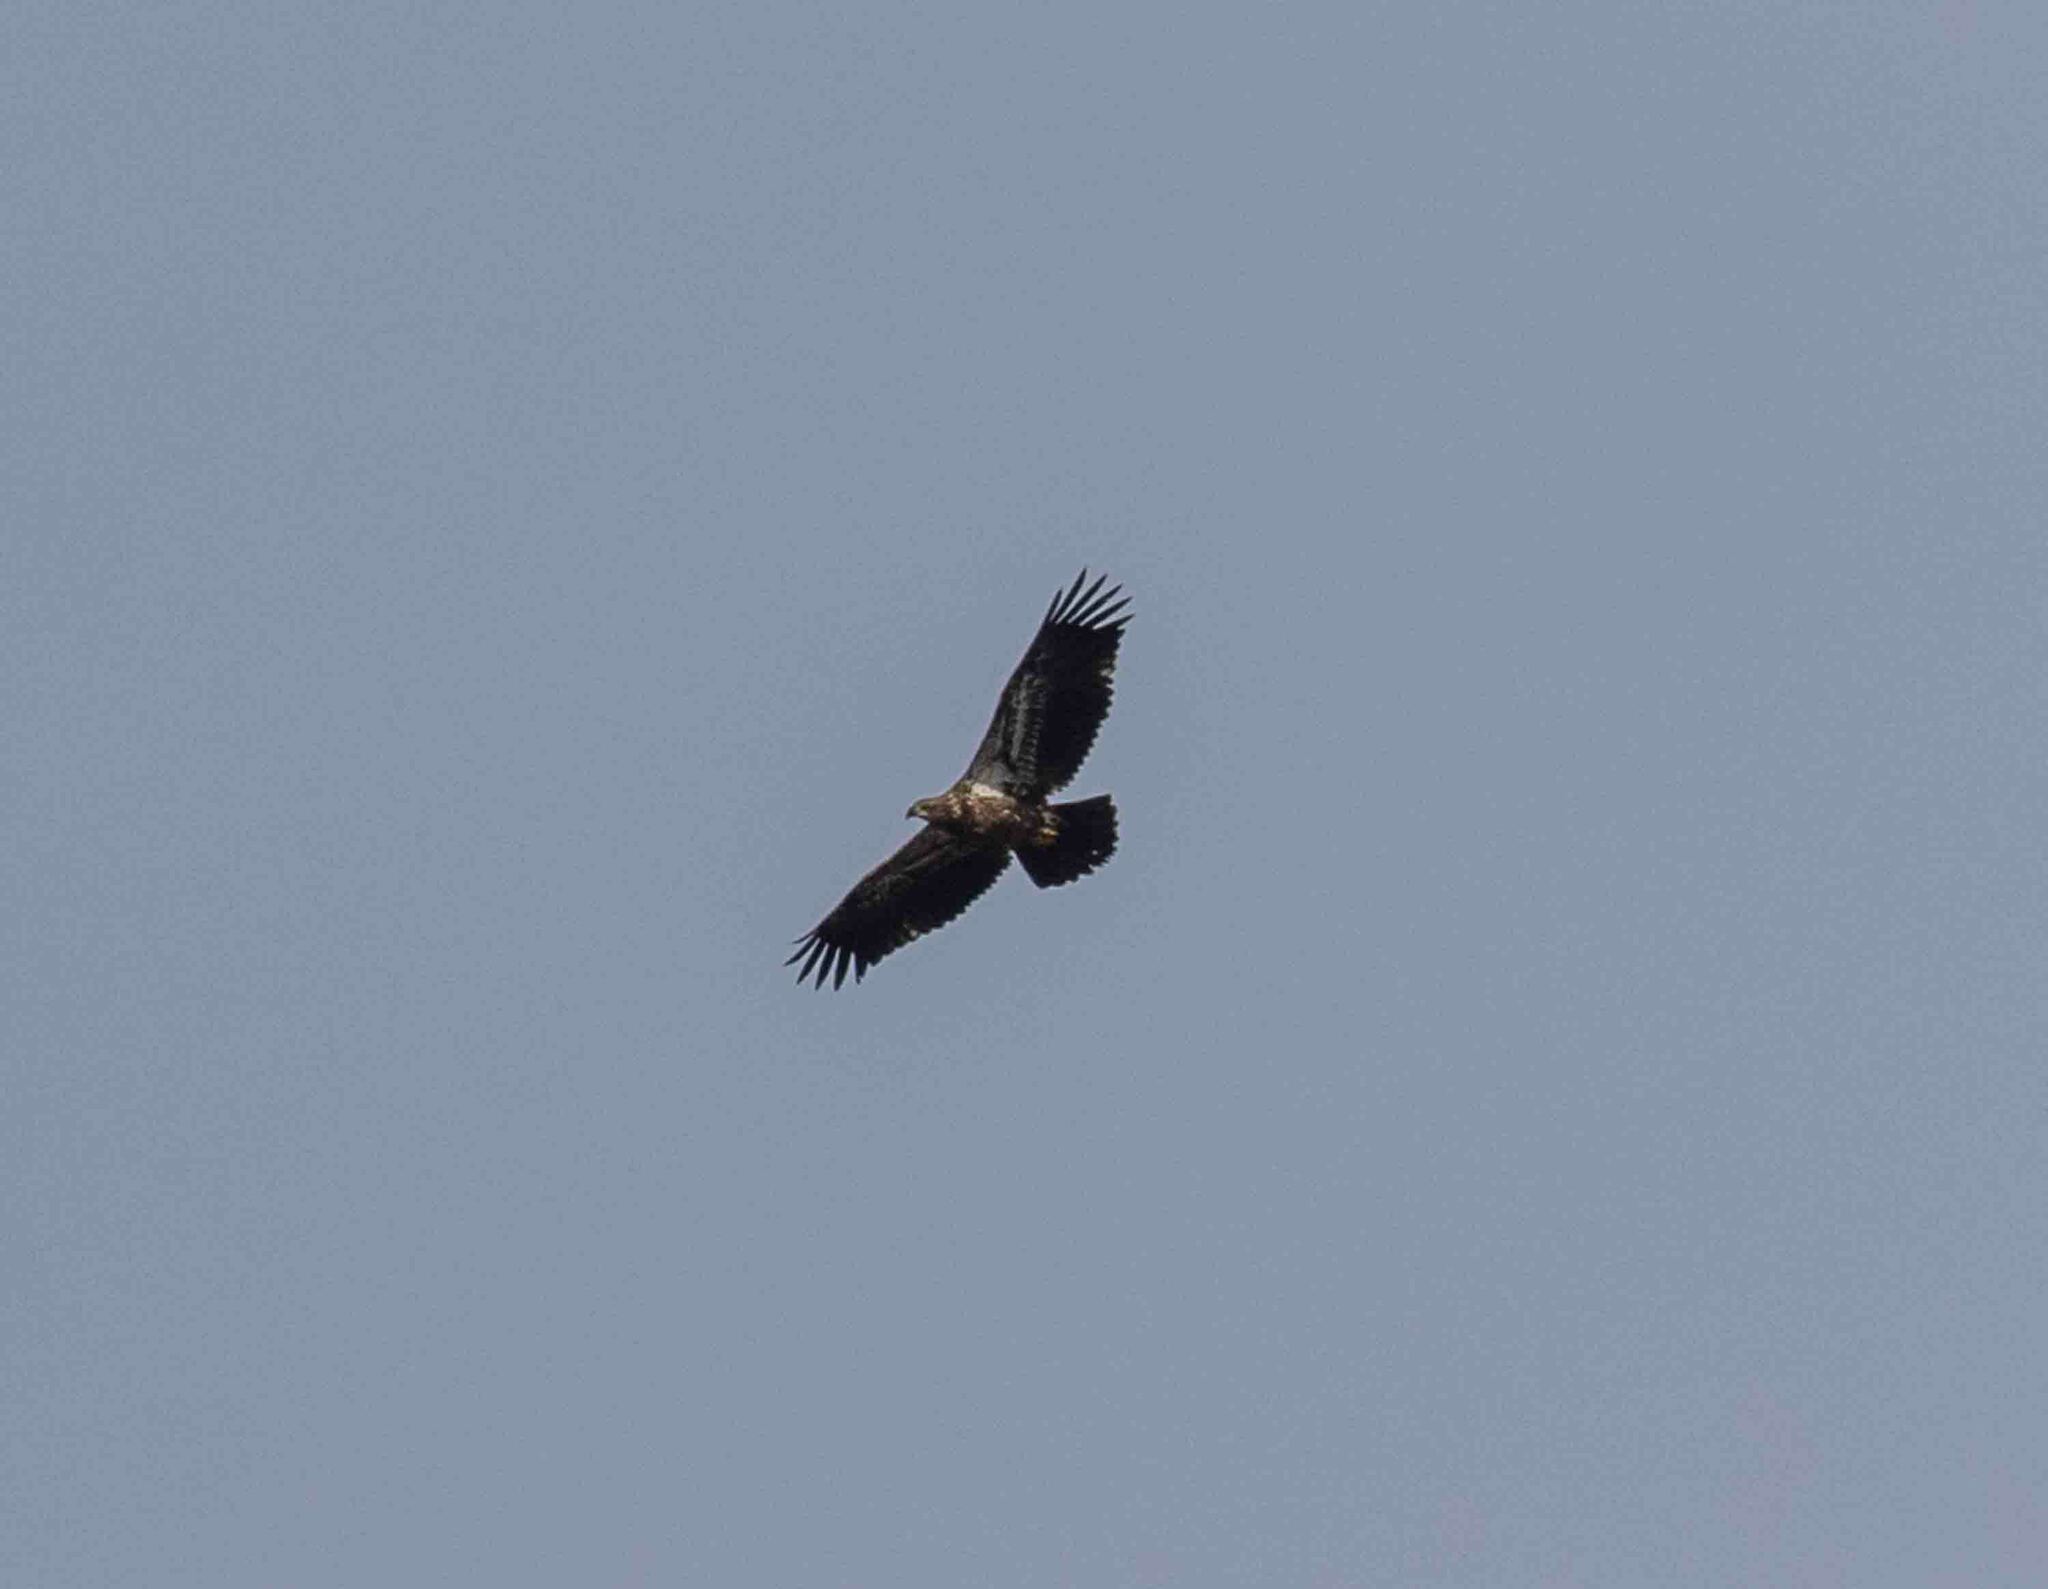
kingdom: Animalia
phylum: Chordata
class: Aves
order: Accipitriformes
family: Accipitridae
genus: Haliaeetus
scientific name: Haliaeetus leucocephalus
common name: Bald eagle
